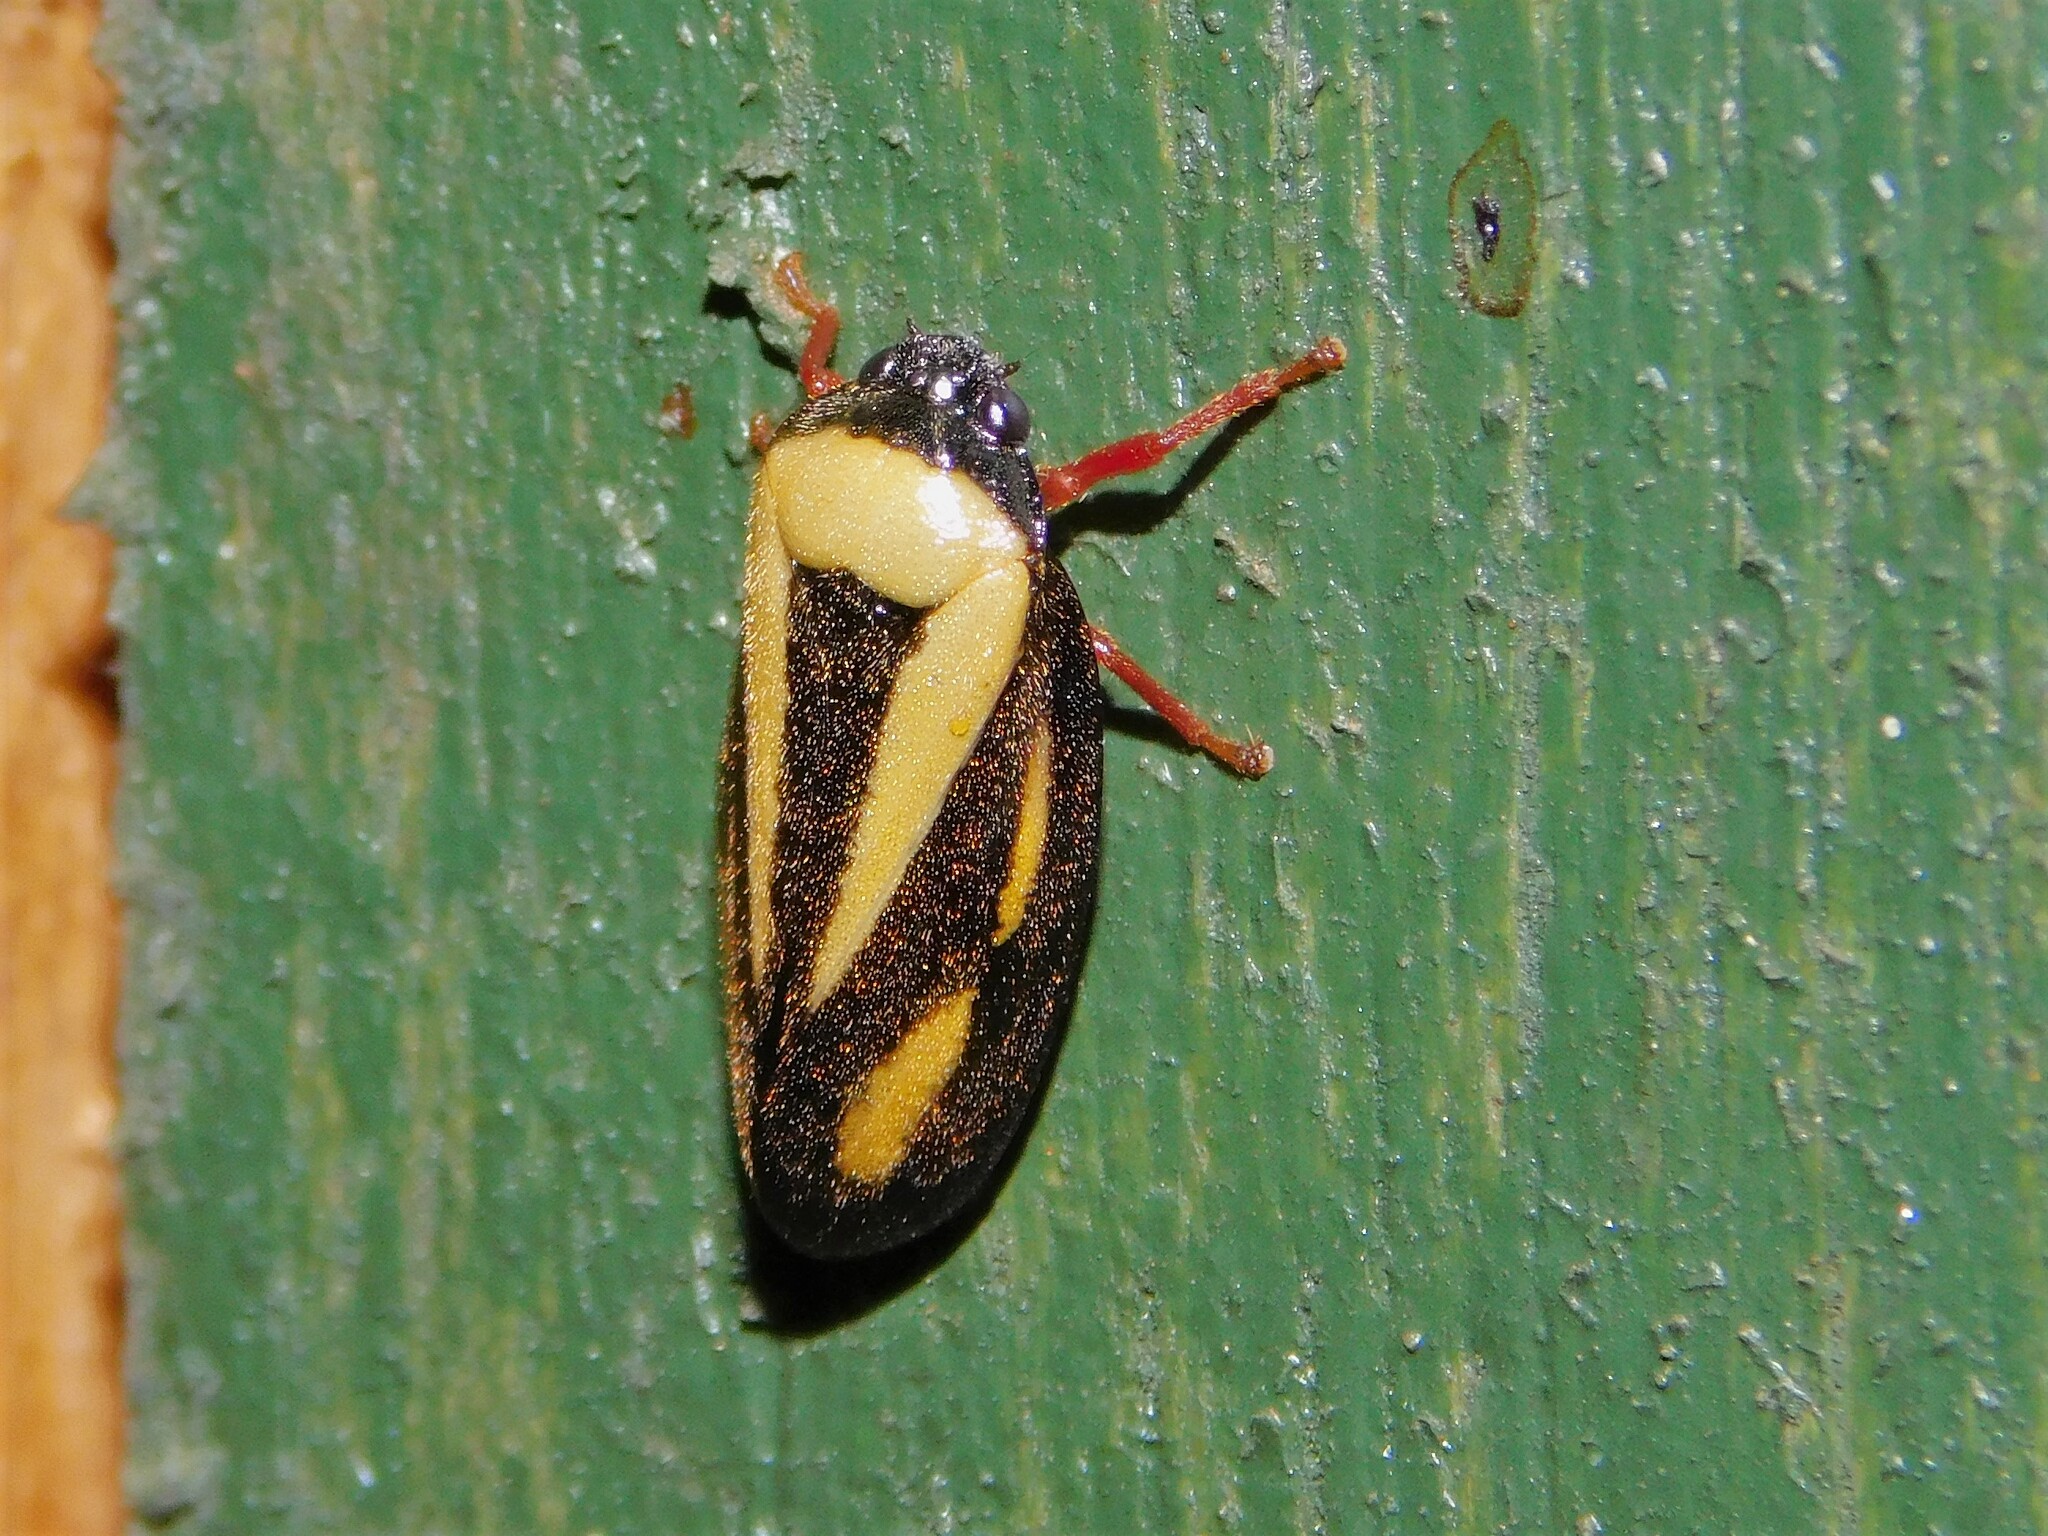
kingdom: Animalia
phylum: Arthropoda
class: Insecta
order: Hemiptera
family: Cercopidae
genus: Hemitriecphora
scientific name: Hemitriecphora haglundi
